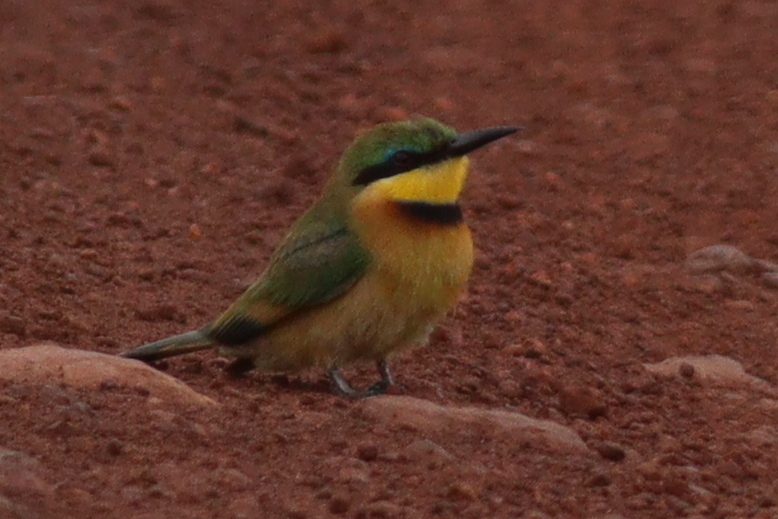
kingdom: Animalia
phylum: Chordata
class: Aves
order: Coraciiformes
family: Meropidae
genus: Merops
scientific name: Merops pusillus
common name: Little bee-eater
